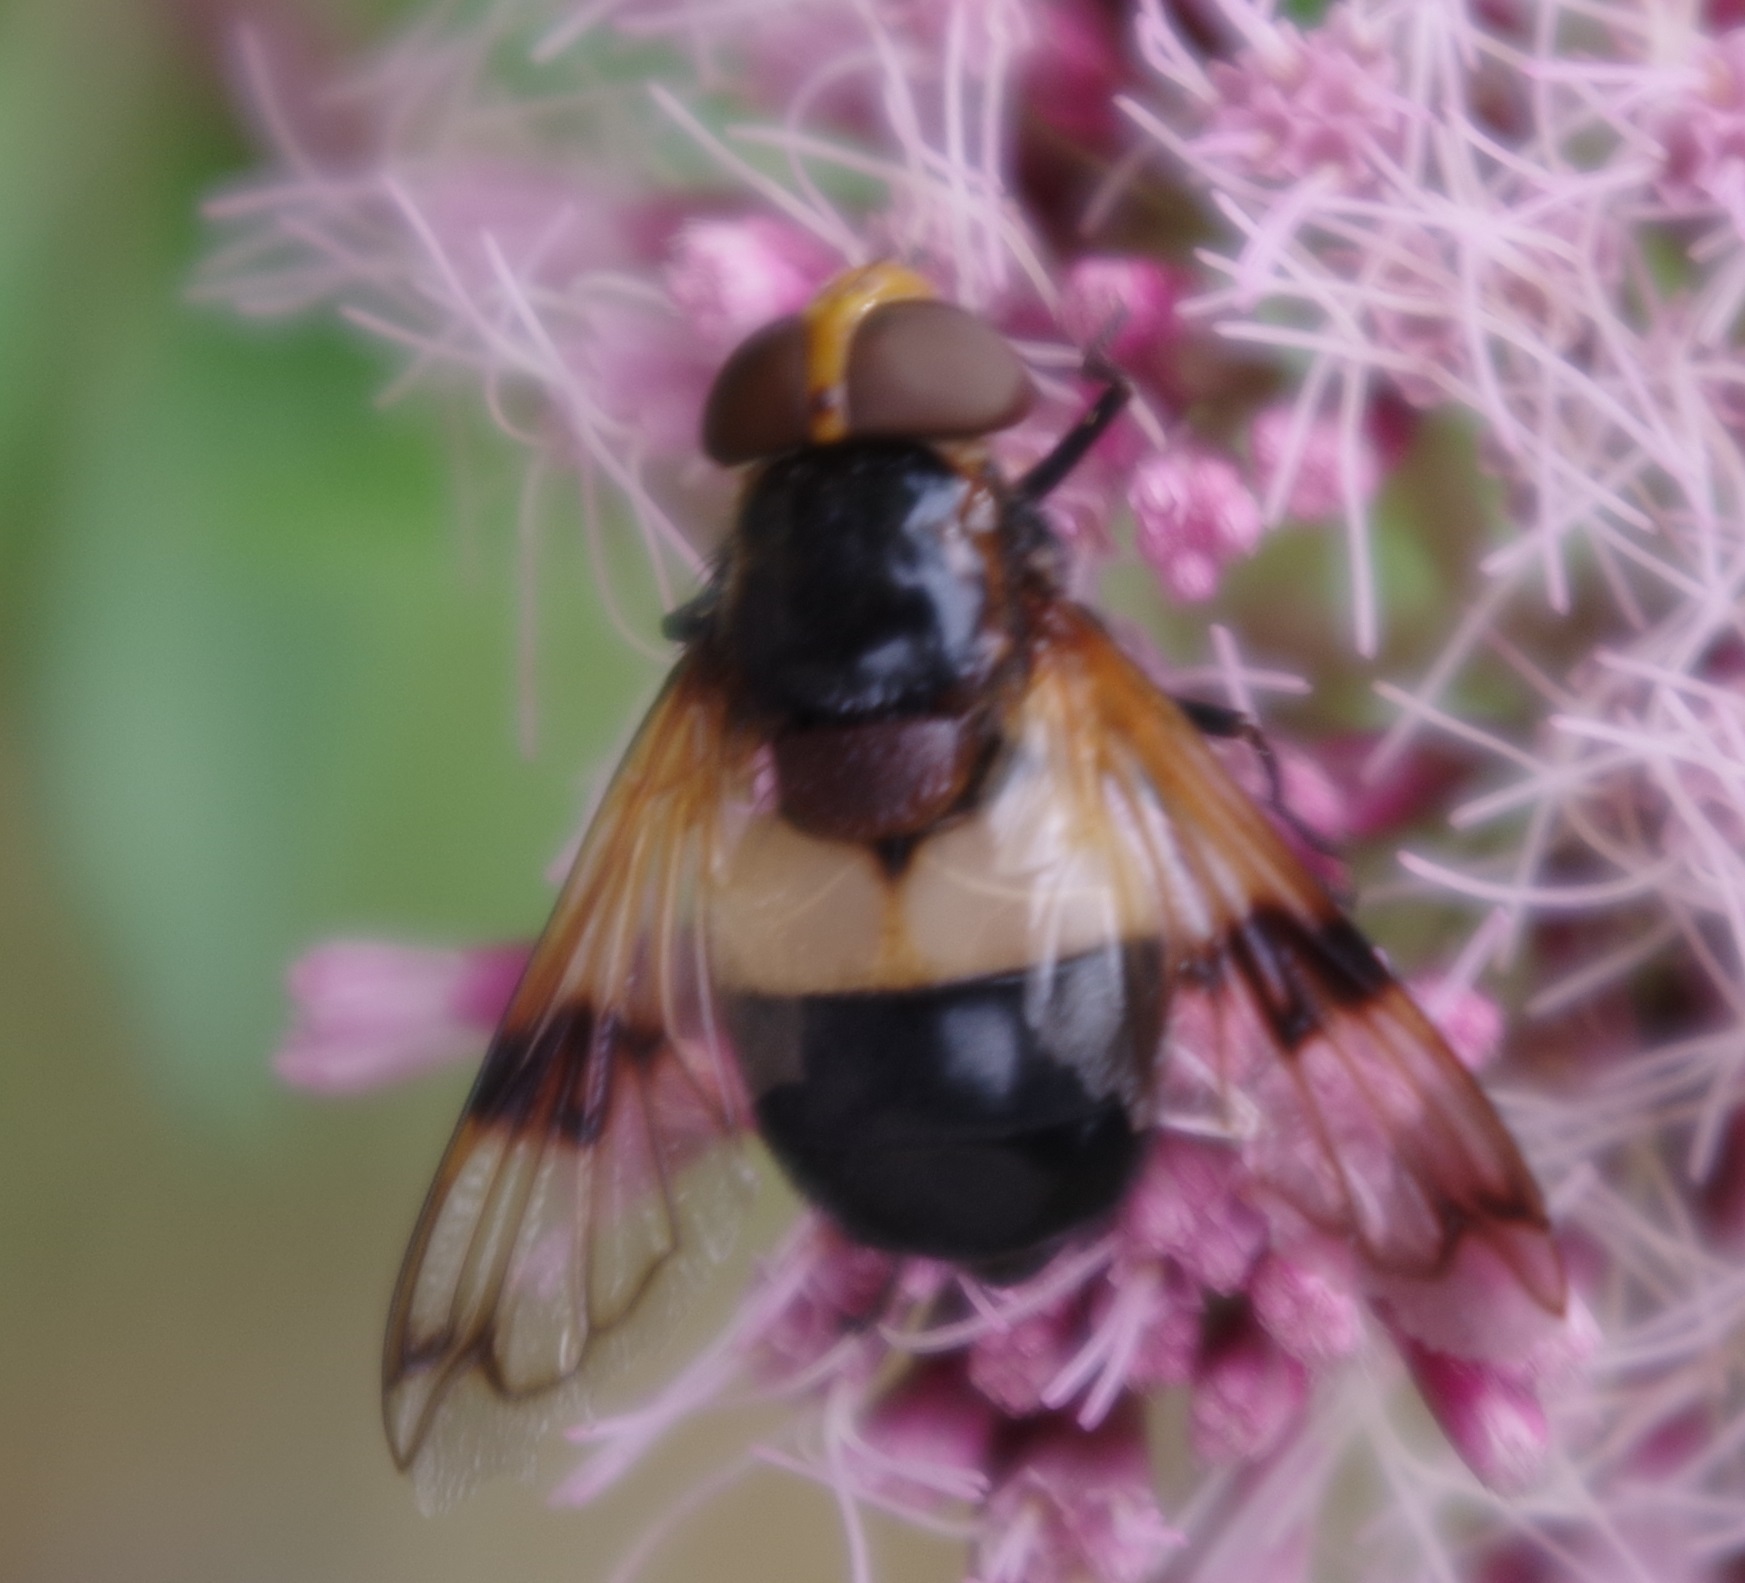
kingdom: Animalia
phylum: Arthropoda
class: Insecta
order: Diptera
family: Syrphidae
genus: Volucella
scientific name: Volucella pellucens
